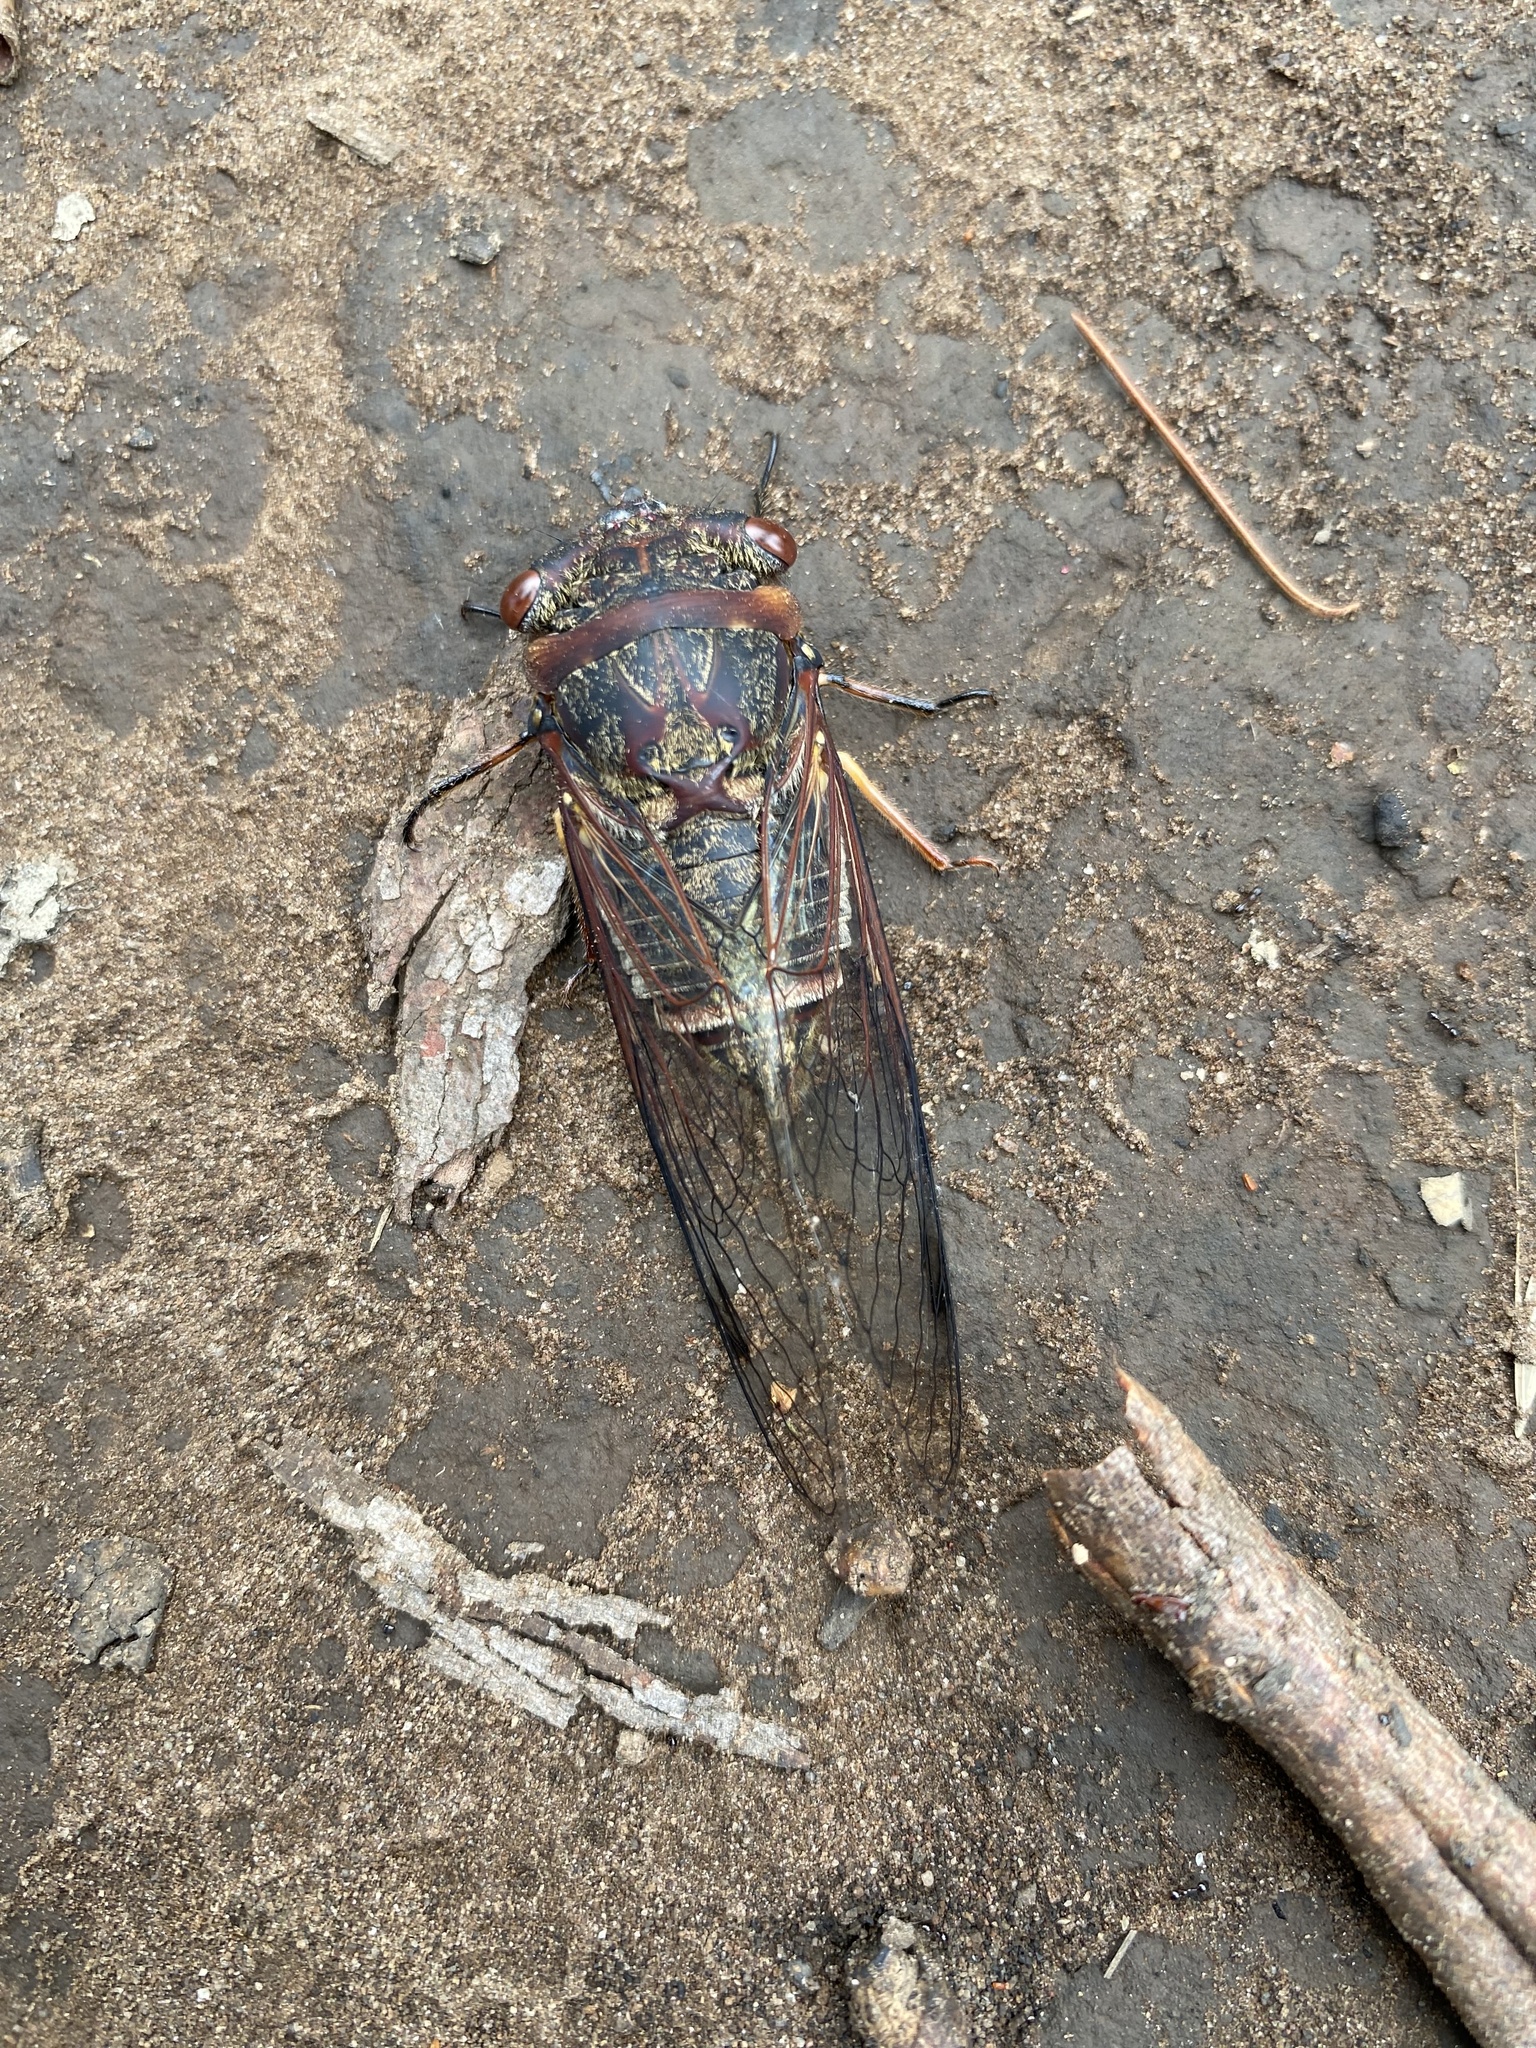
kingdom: Animalia
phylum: Arthropoda
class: Insecta
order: Hemiptera
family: Cicadidae
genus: Psaltoda
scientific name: Psaltoda plaga
